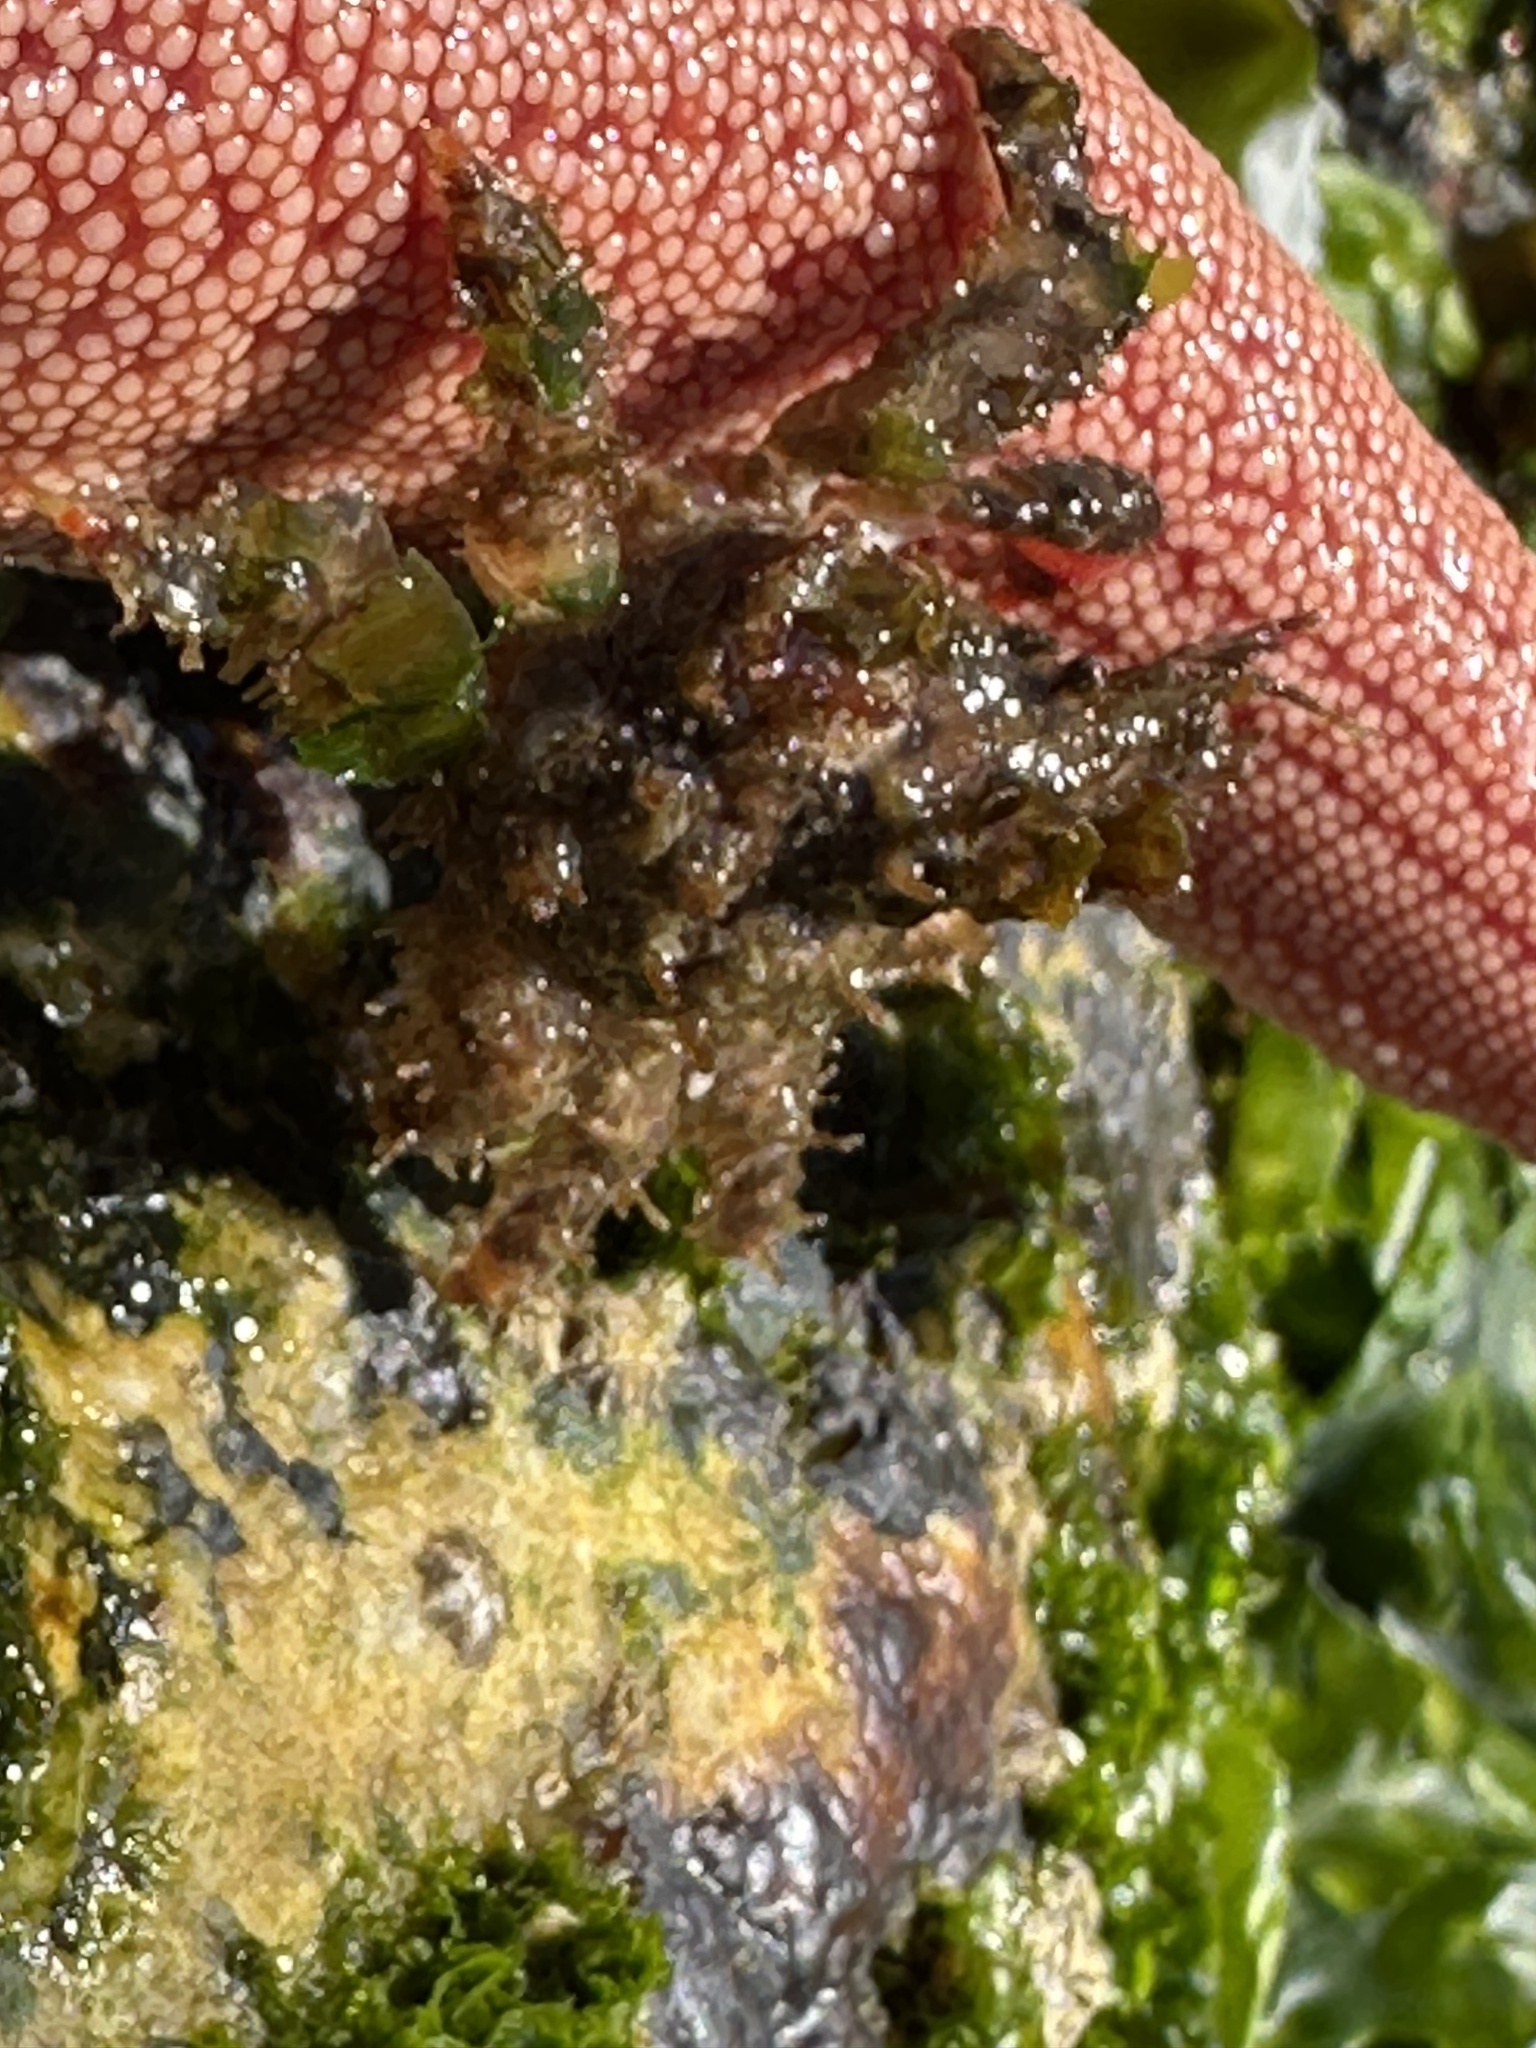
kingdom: Animalia
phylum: Arthropoda
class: Malacostraca
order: Decapoda
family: Epialtidae
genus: Pisoides
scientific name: Pisoides edwardsii
